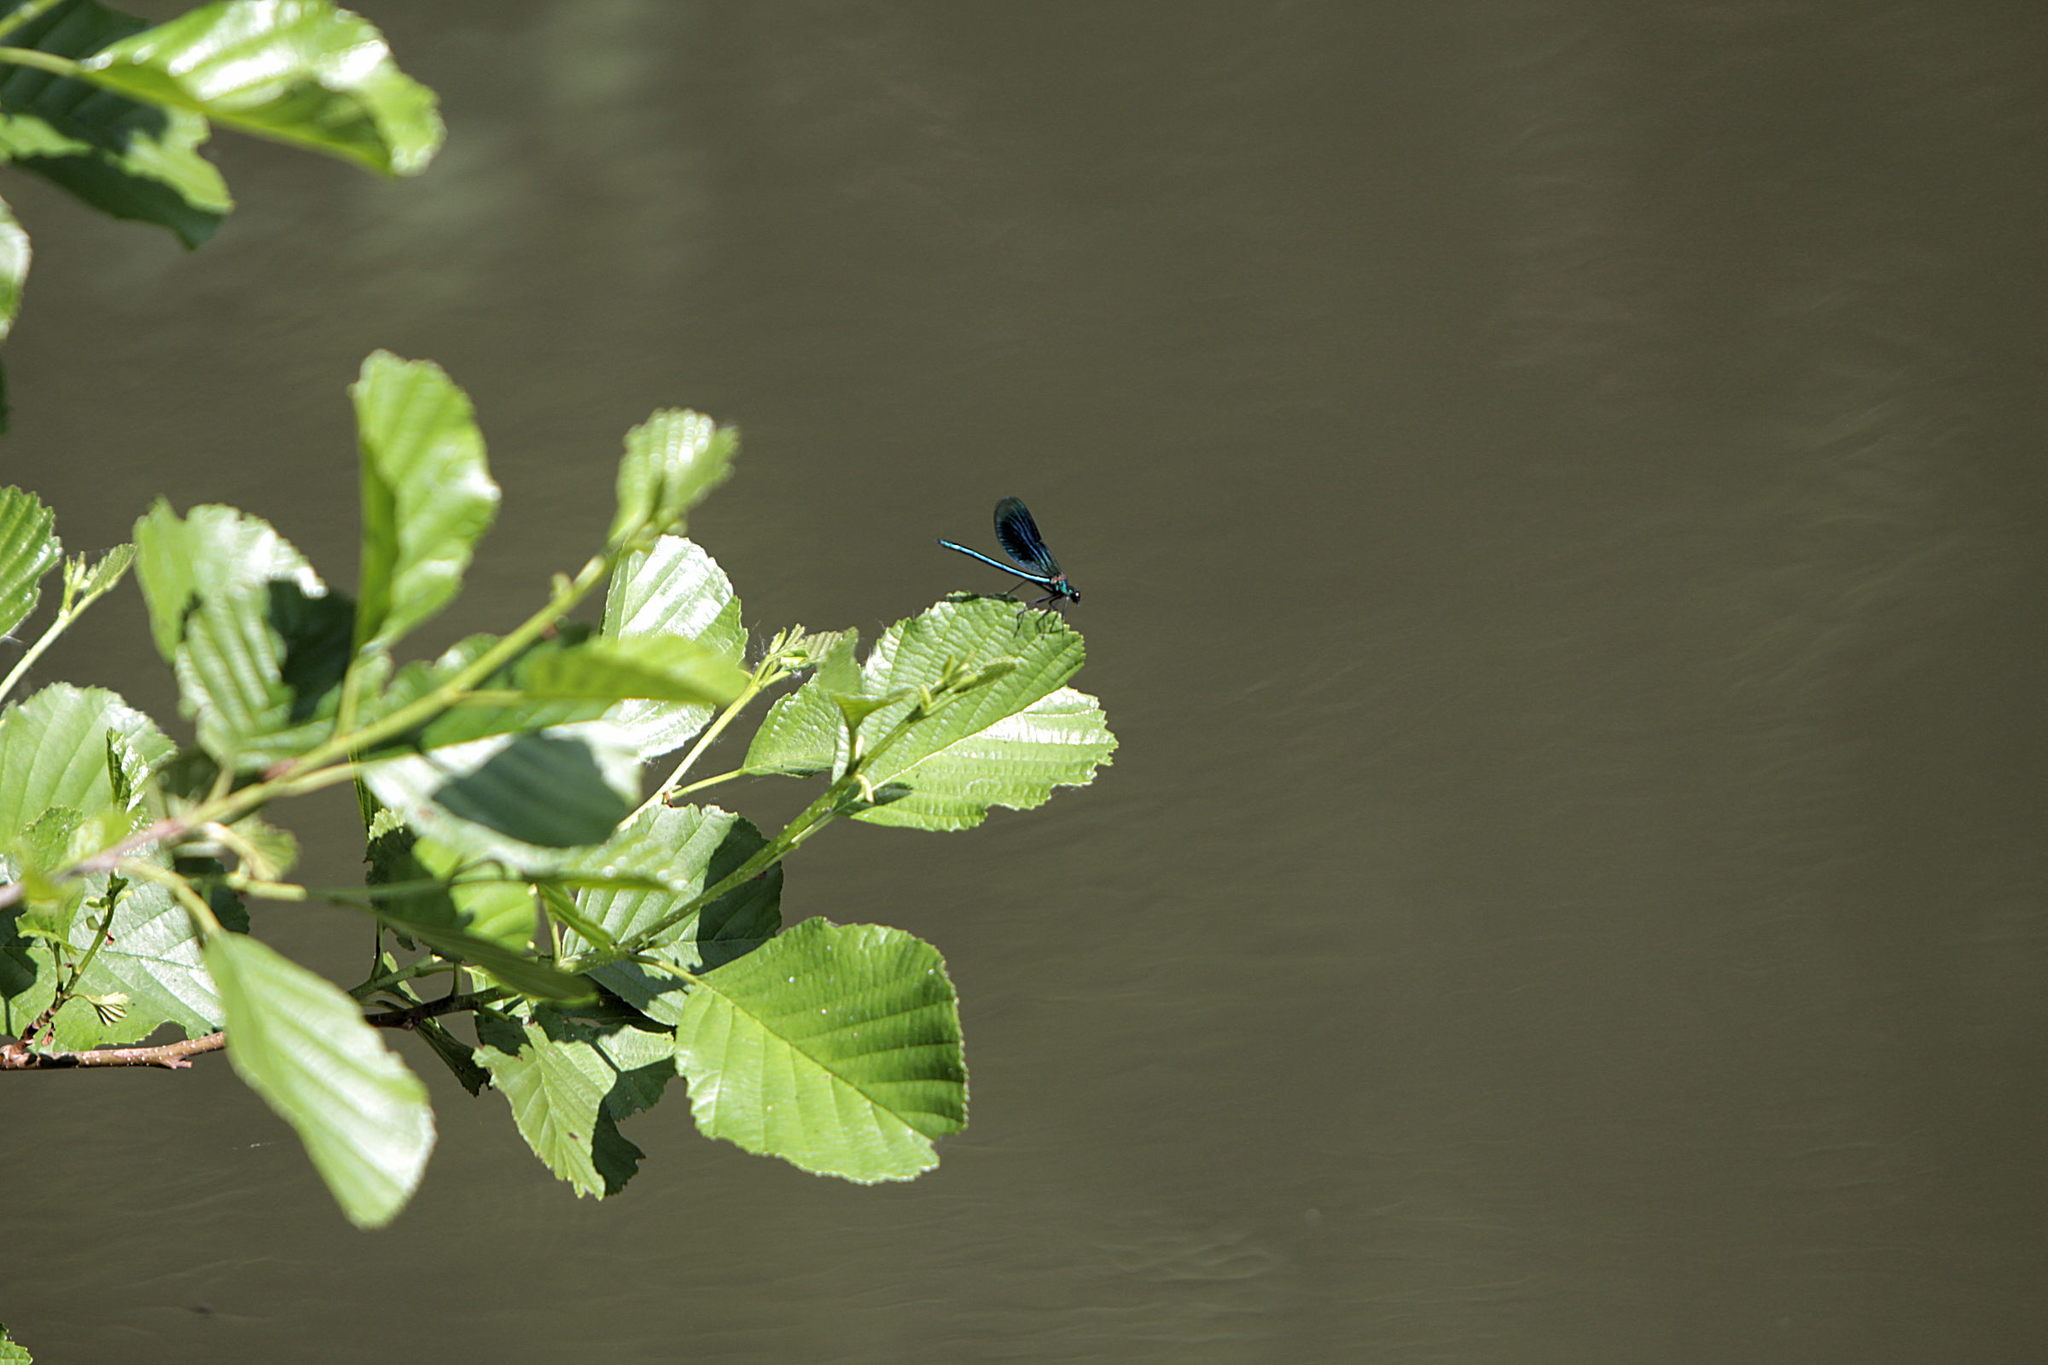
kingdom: Animalia
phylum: Arthropoda
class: Insecta
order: Odonata
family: Calopterygidae
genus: Calopteryx
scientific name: Calopteryx splendens
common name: Banded demoiselle
